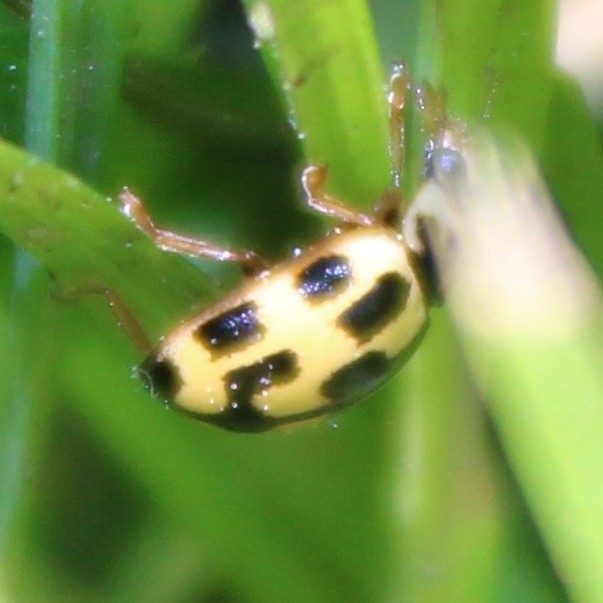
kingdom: Animalia
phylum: Arthropoda
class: Insecta
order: Coleoptera
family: Coccinellidae
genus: Propylaea
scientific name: Propylaea quatuordecimpunctata
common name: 14-spotted ladybird beetle
